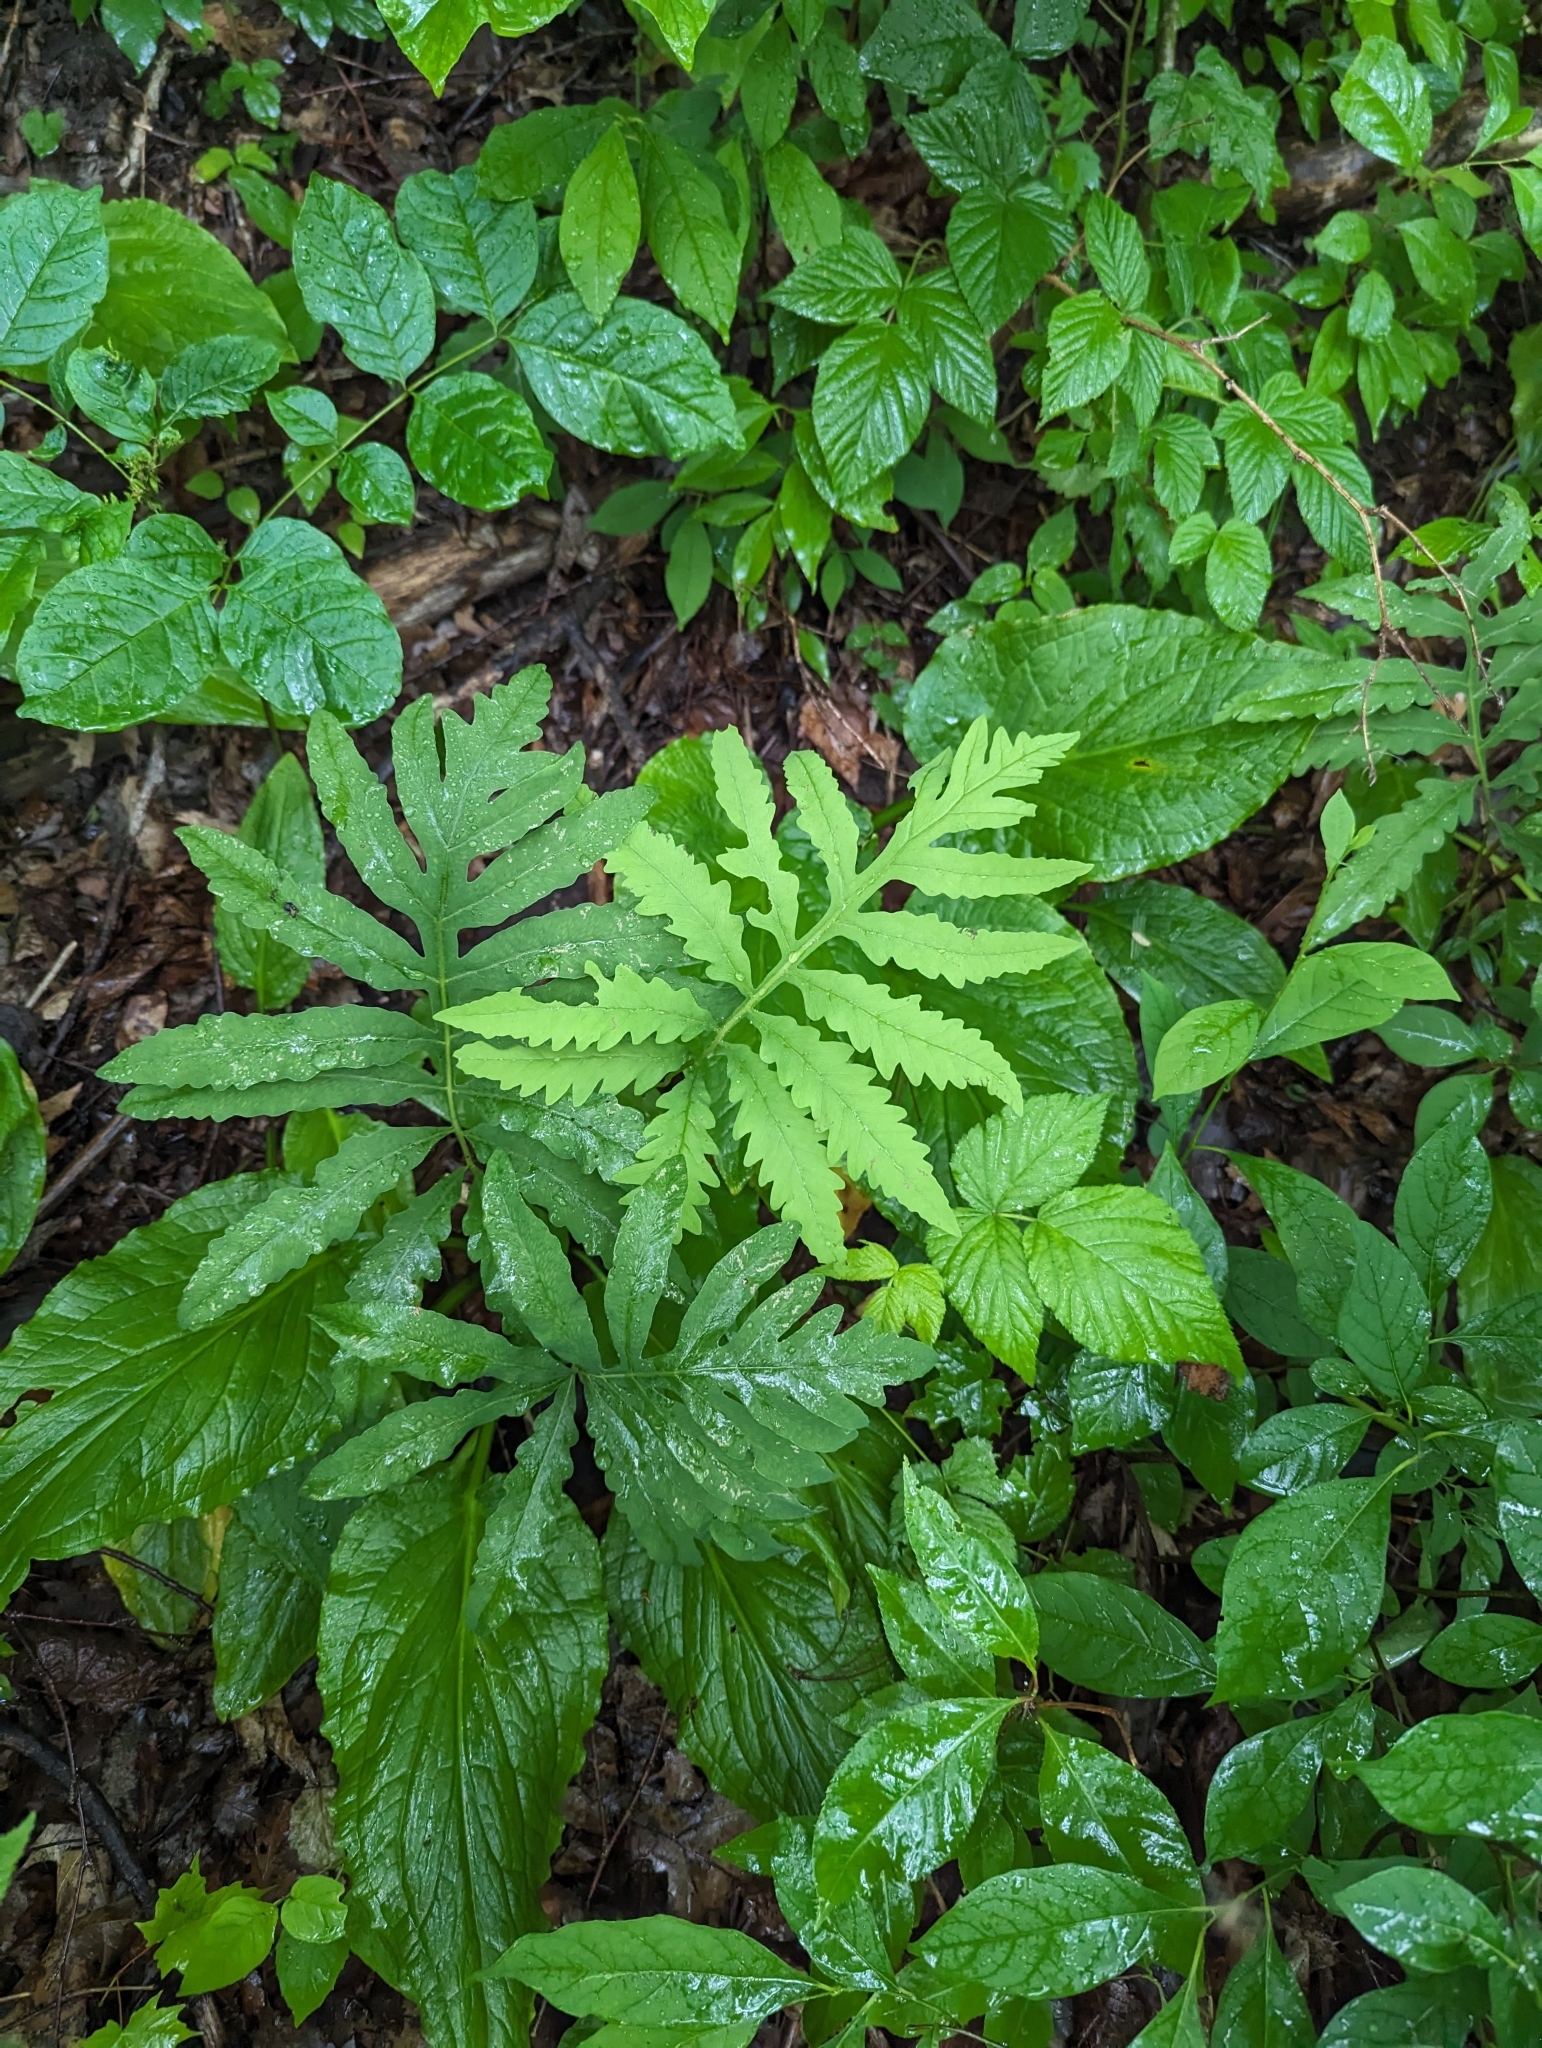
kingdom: Plantae
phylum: Tracheophyta
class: Polypodiopsida
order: Polypodiales
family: Onocleaceae
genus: Onoclea
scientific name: Onoclea sensibilis
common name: Sensitive fern
